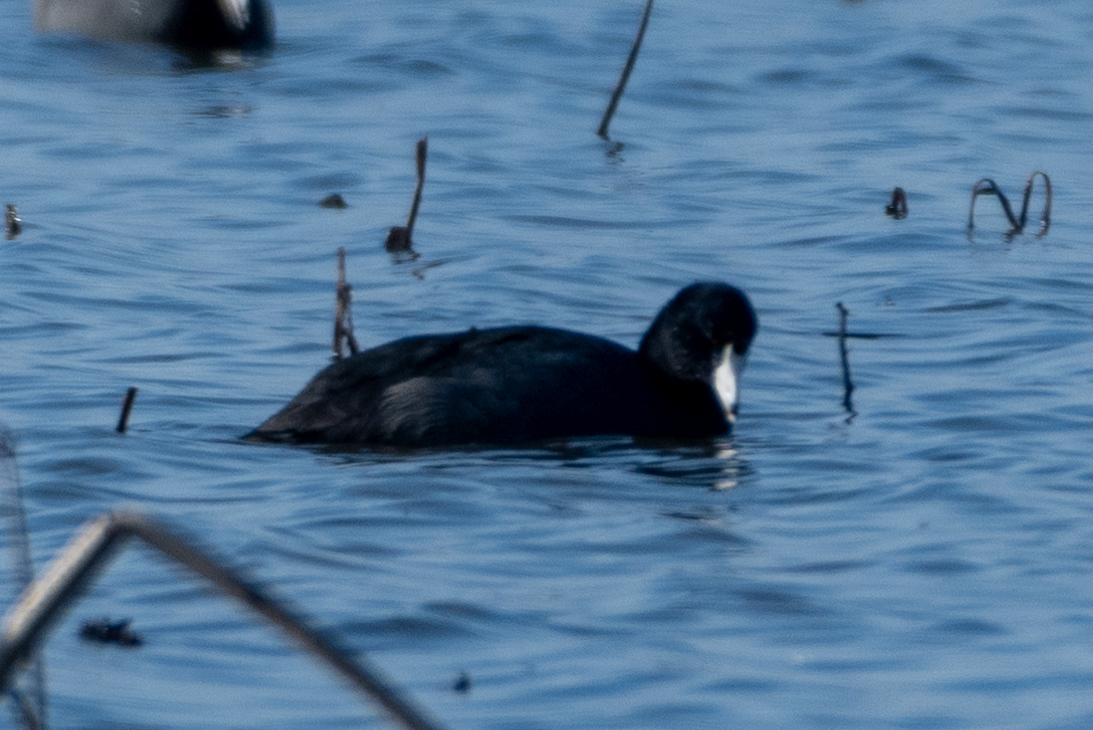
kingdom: Animalia
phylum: Chordata
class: Aves
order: Gruiformes
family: Rallidae
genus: Fulica
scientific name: Fulica americana
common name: American coot
